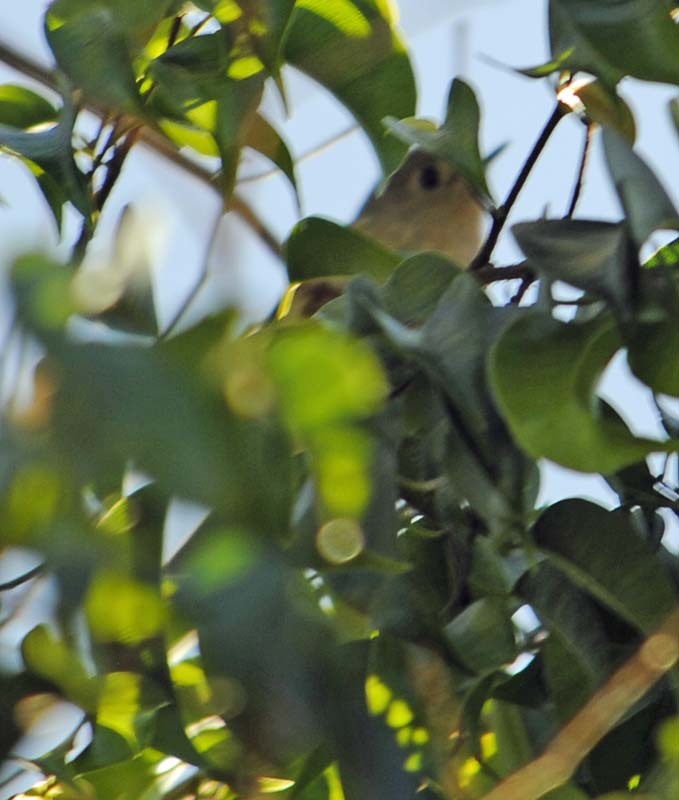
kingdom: Animalia
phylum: Chordata
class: Aves
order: Passeriformes
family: Regulidae
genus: Regulus
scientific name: Regulus calendula
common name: Ruby-crowned kinglet
